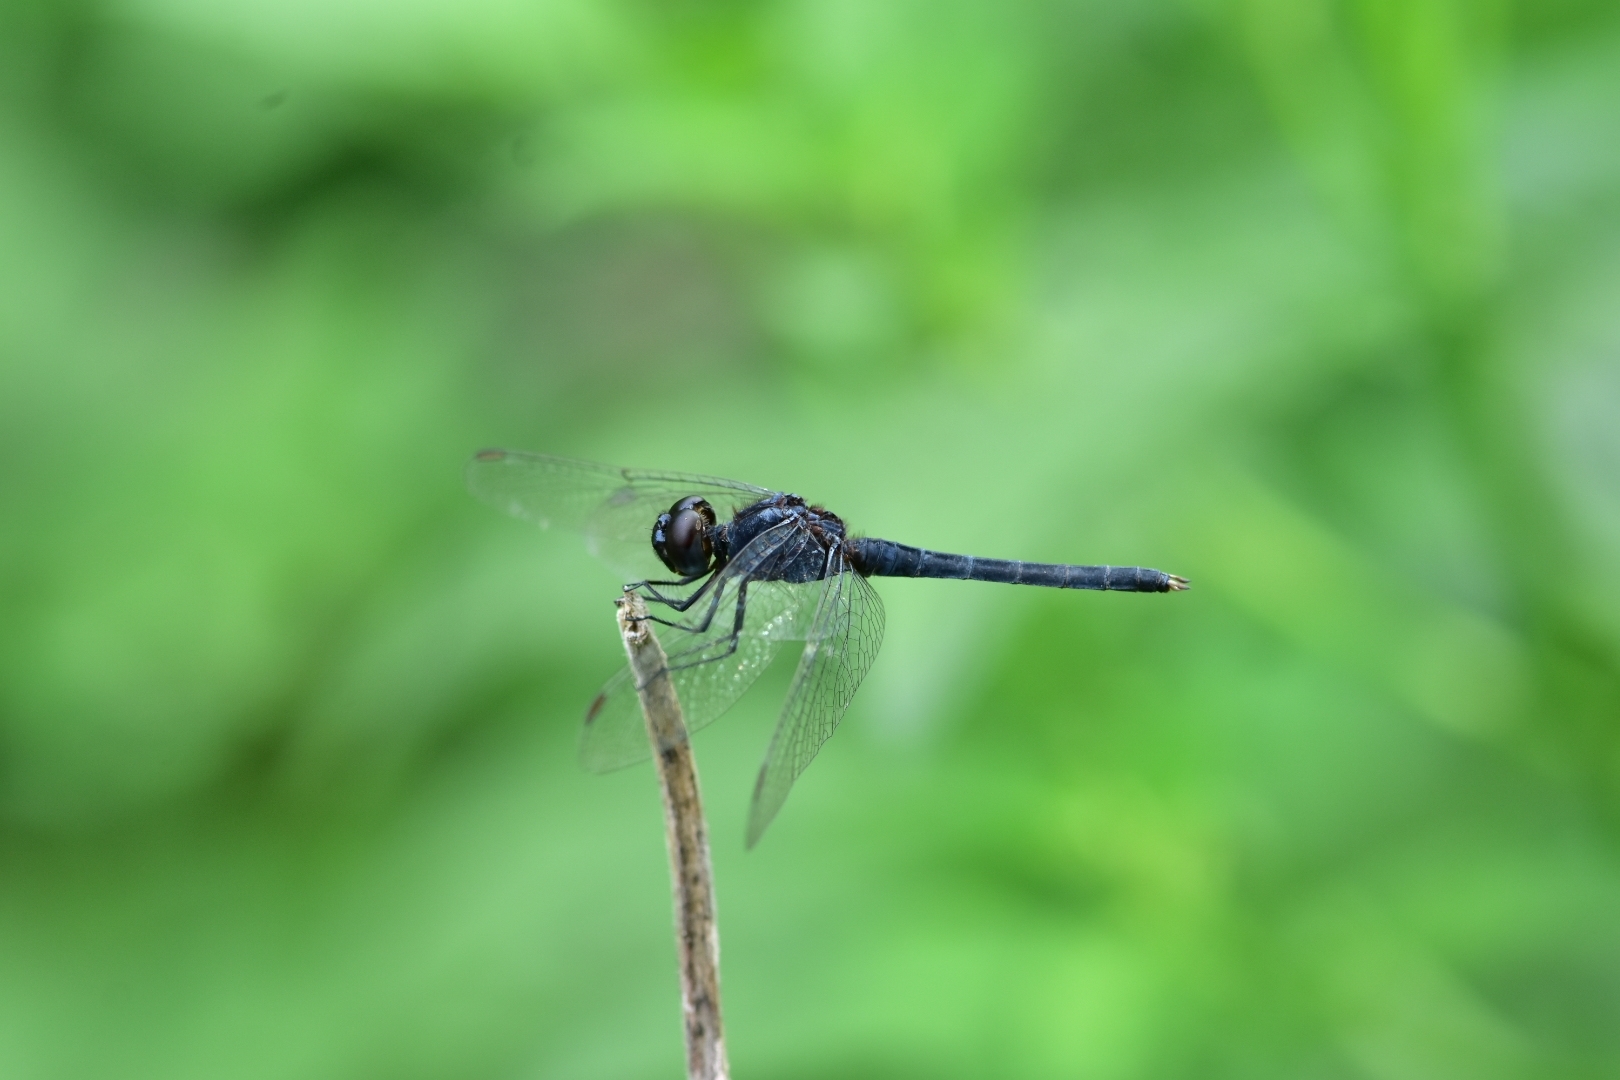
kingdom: Animalia
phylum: Arthropoda
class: Insecta
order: Odonata
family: Libellulidae
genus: Indothemis
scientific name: Indothemis carnatica
